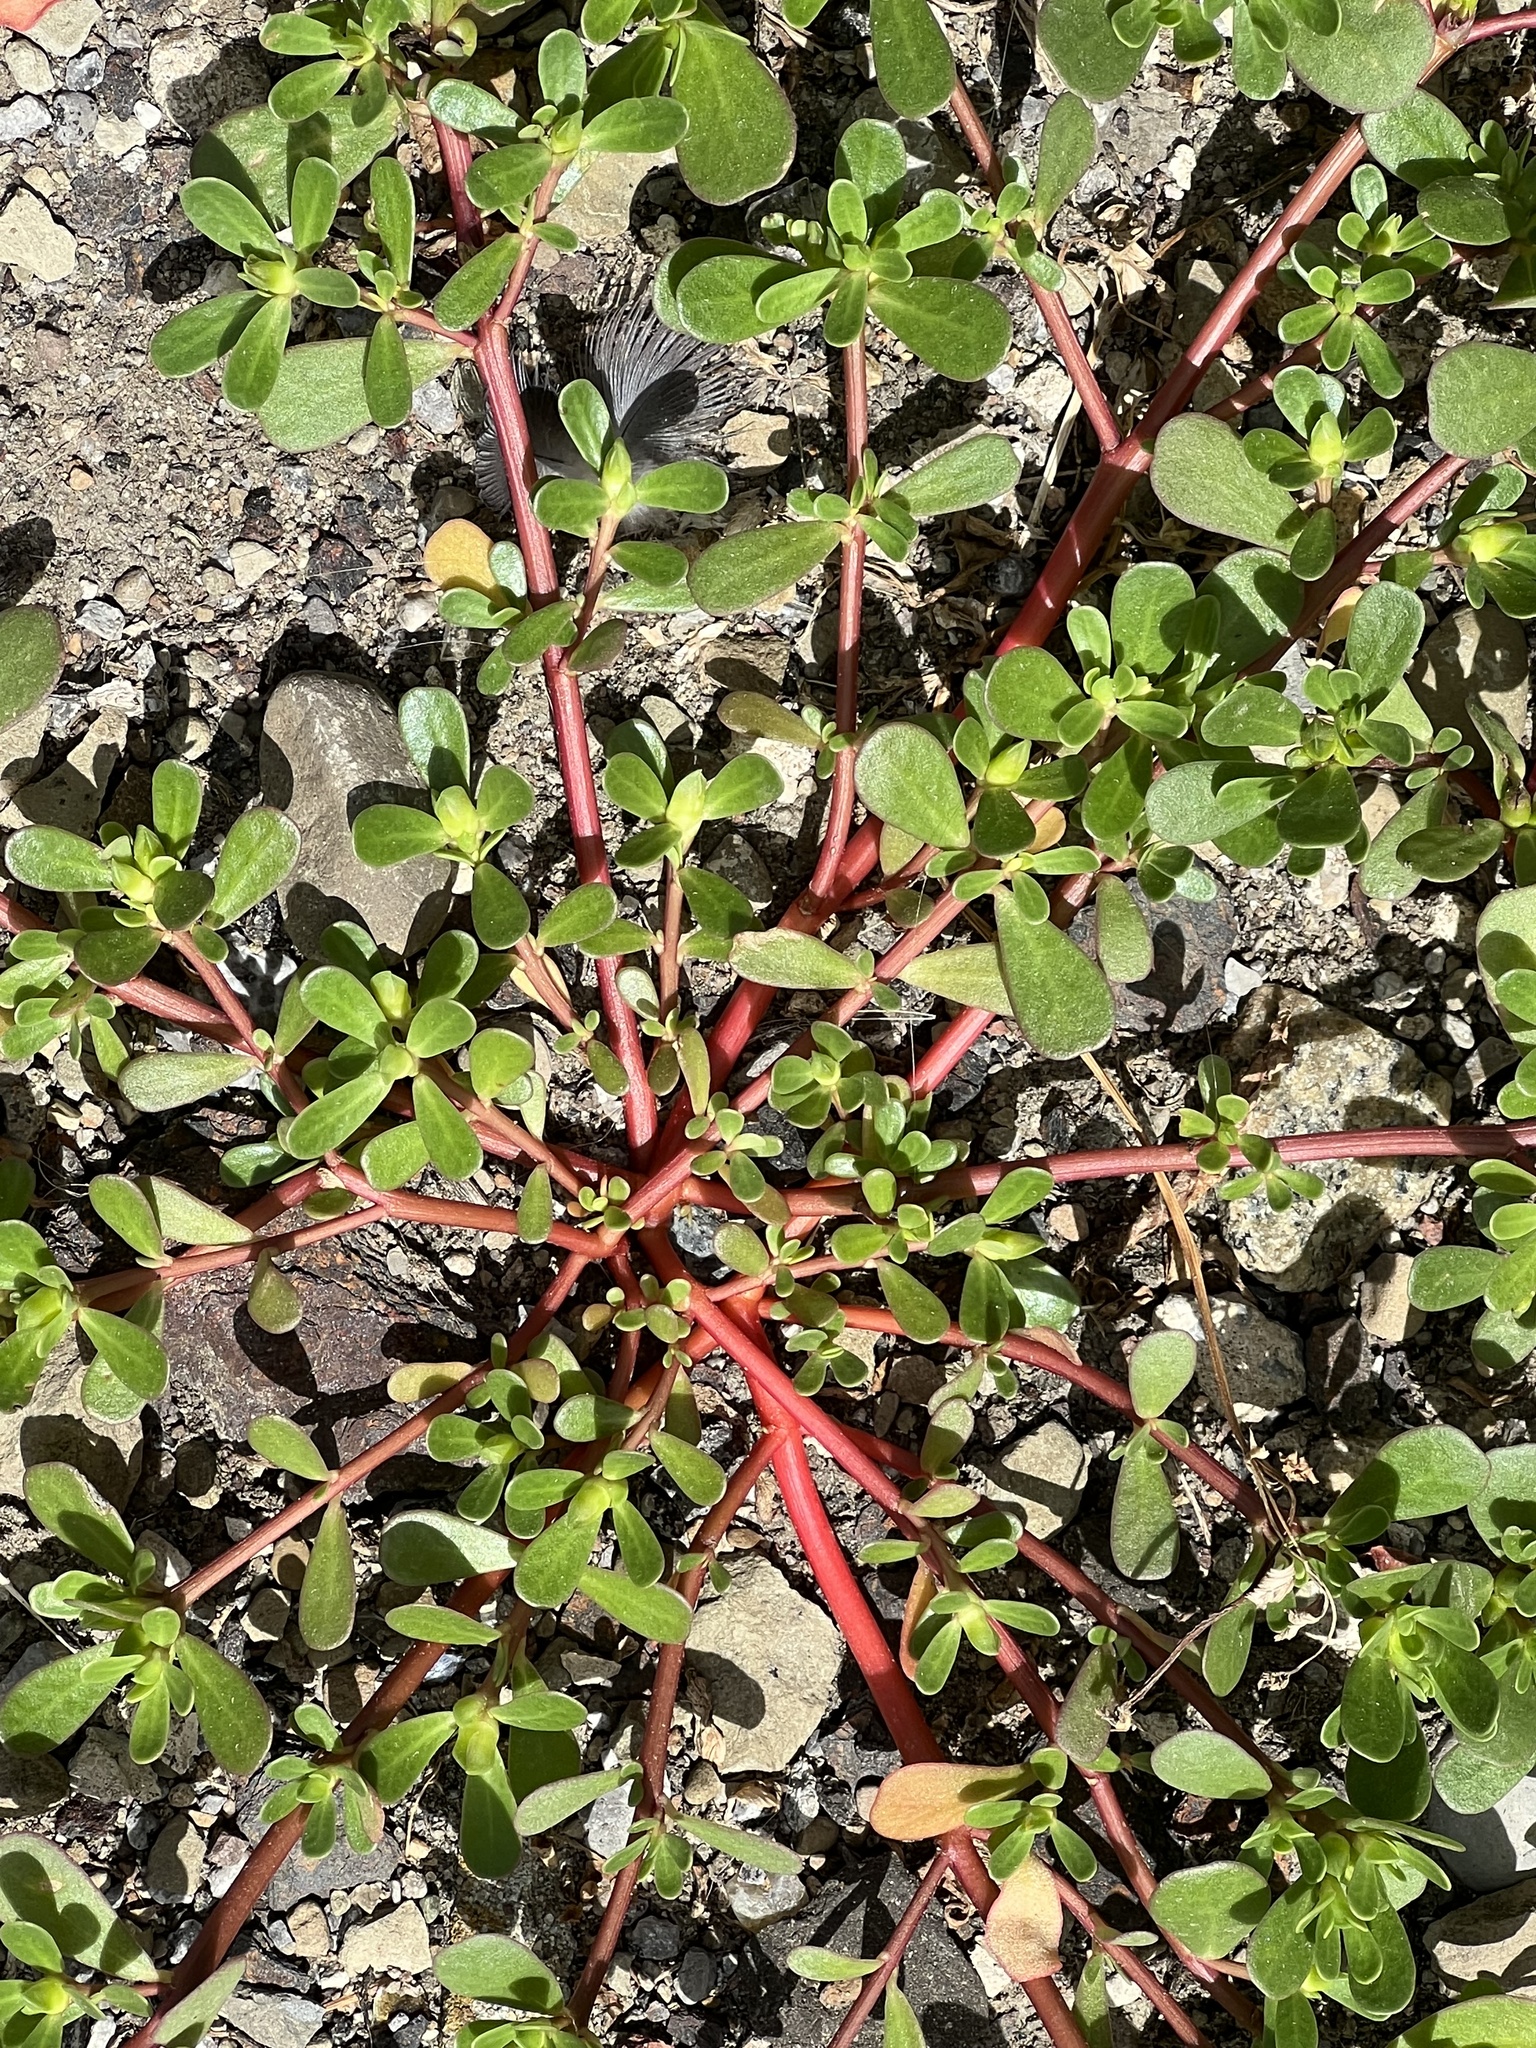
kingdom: Plantae
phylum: Tracheophyta
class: Magnoliopsida
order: Caryophyllales
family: Portulacaceae
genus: Portulaca
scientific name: Portulaca oleracea
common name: Common purslane
